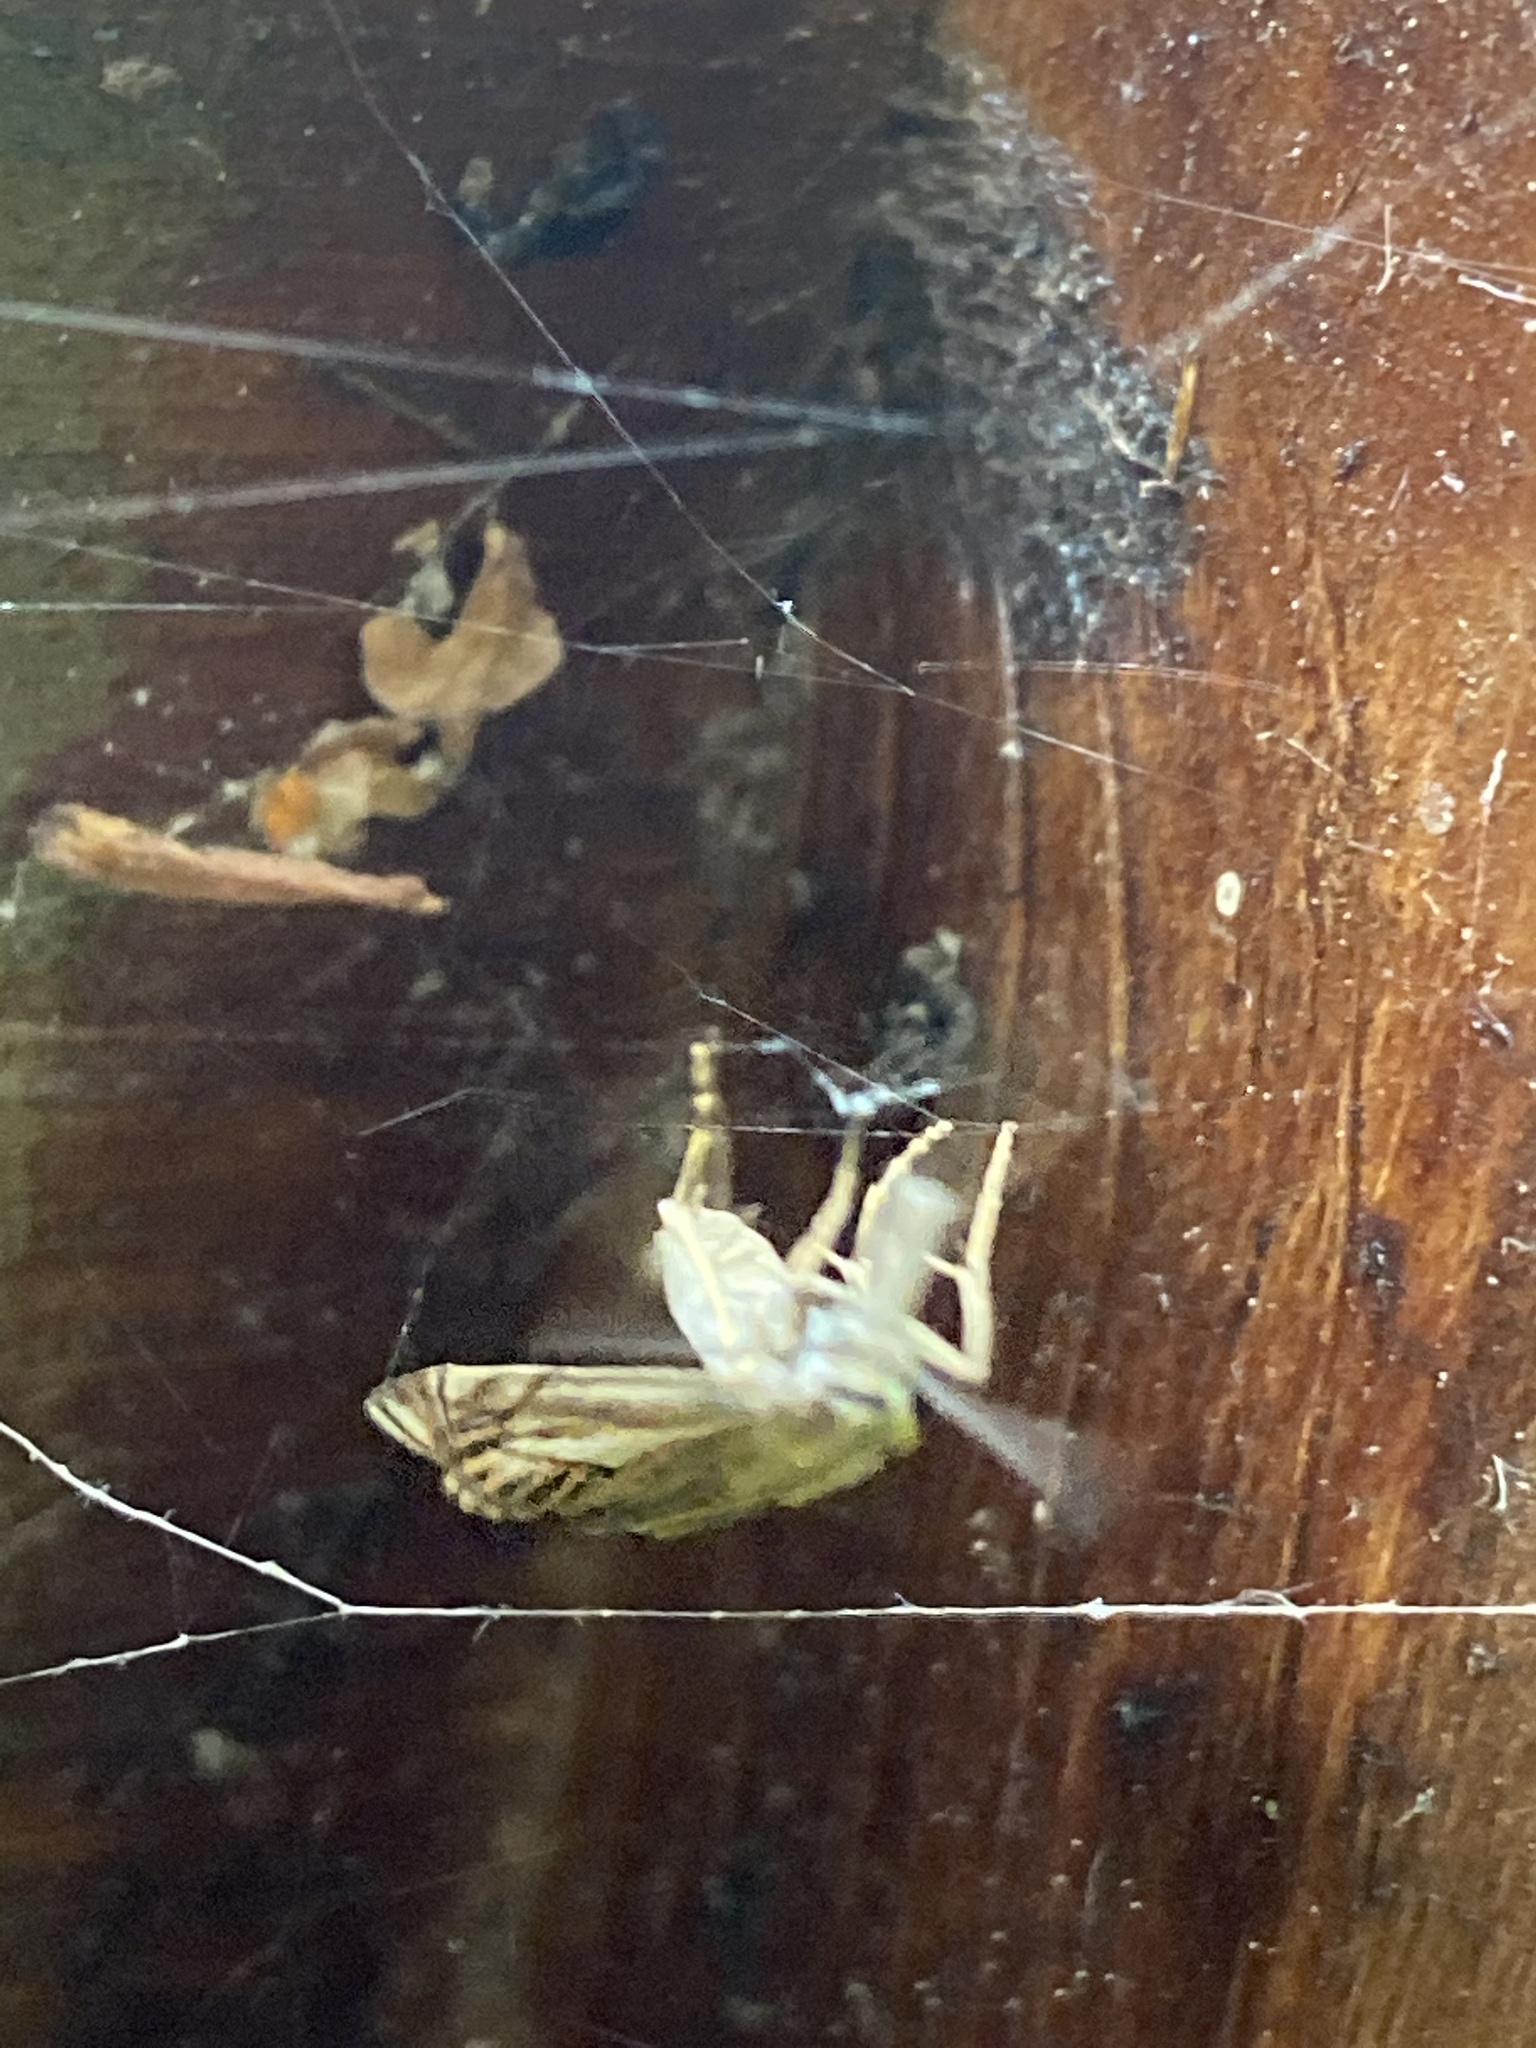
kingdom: Animalia
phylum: Arthropoda
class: Insecta
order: Lepidoptera
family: Crambidae
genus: Crambus
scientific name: Crambus nemorella
